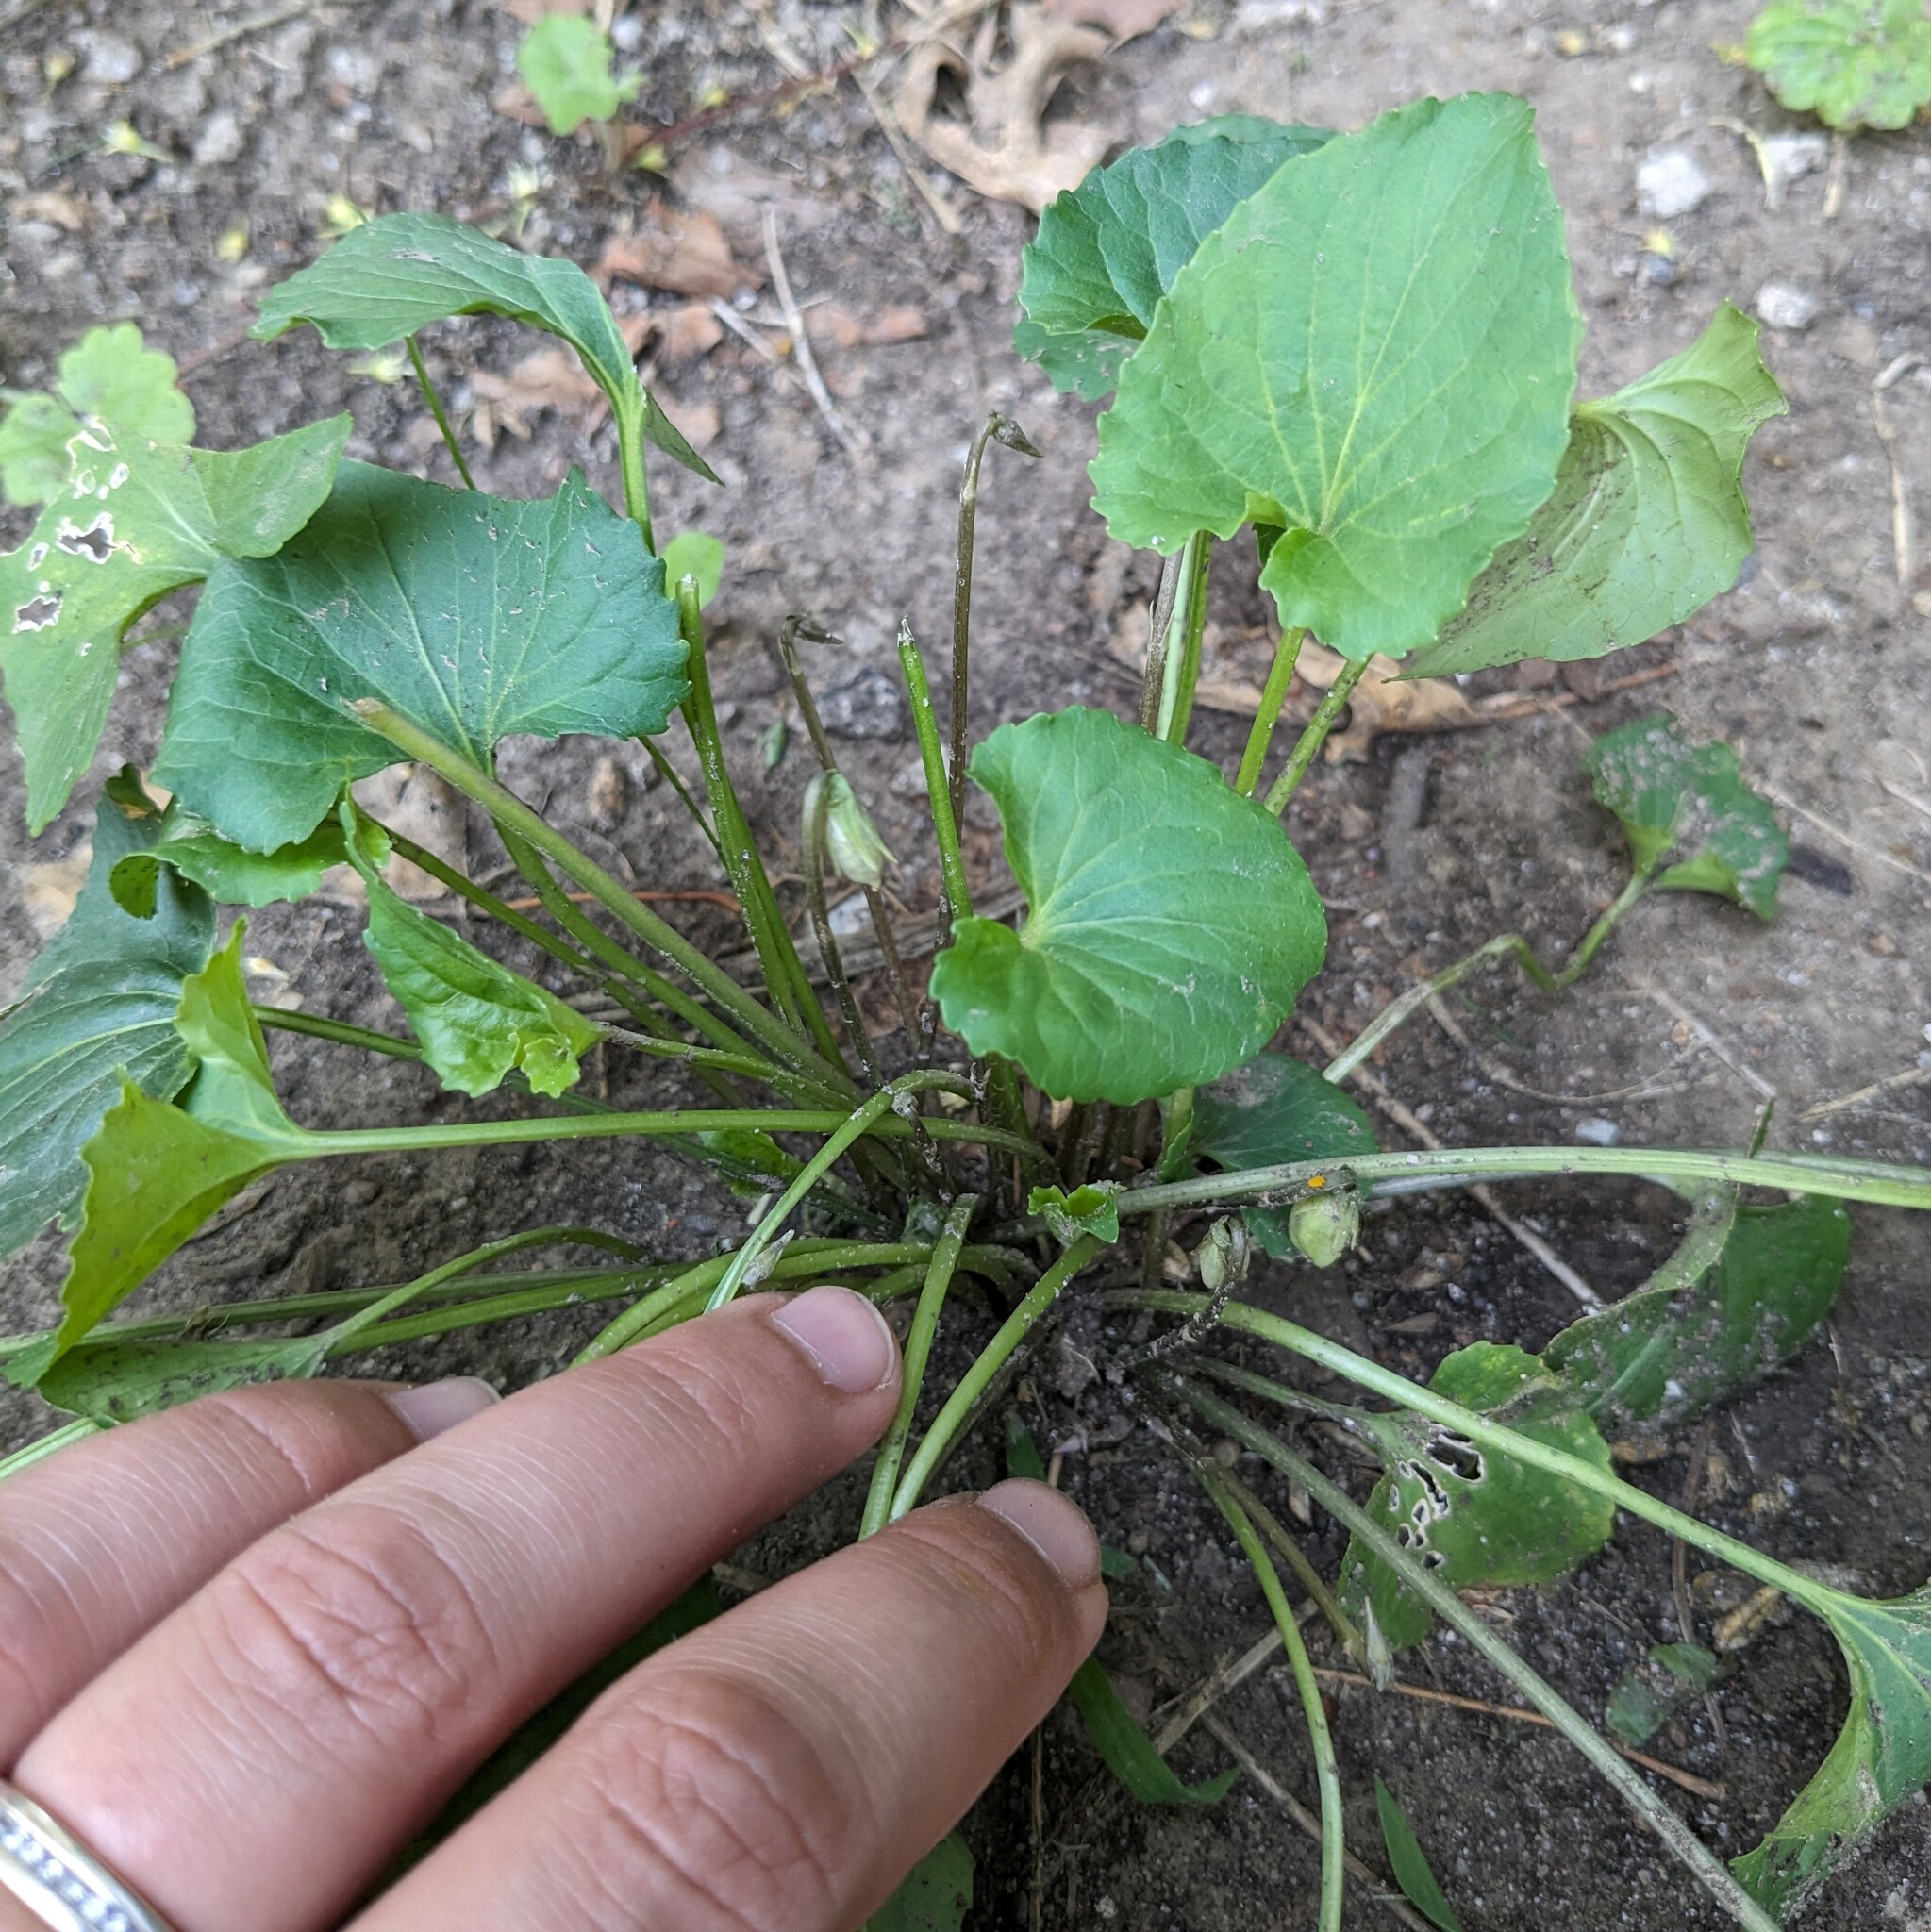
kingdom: Plantae
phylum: Tracheophyta
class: Magnoliopsida
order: Malpighiales
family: Violaceae
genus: Viola
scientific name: Viola sororia
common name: Dooryard violet
